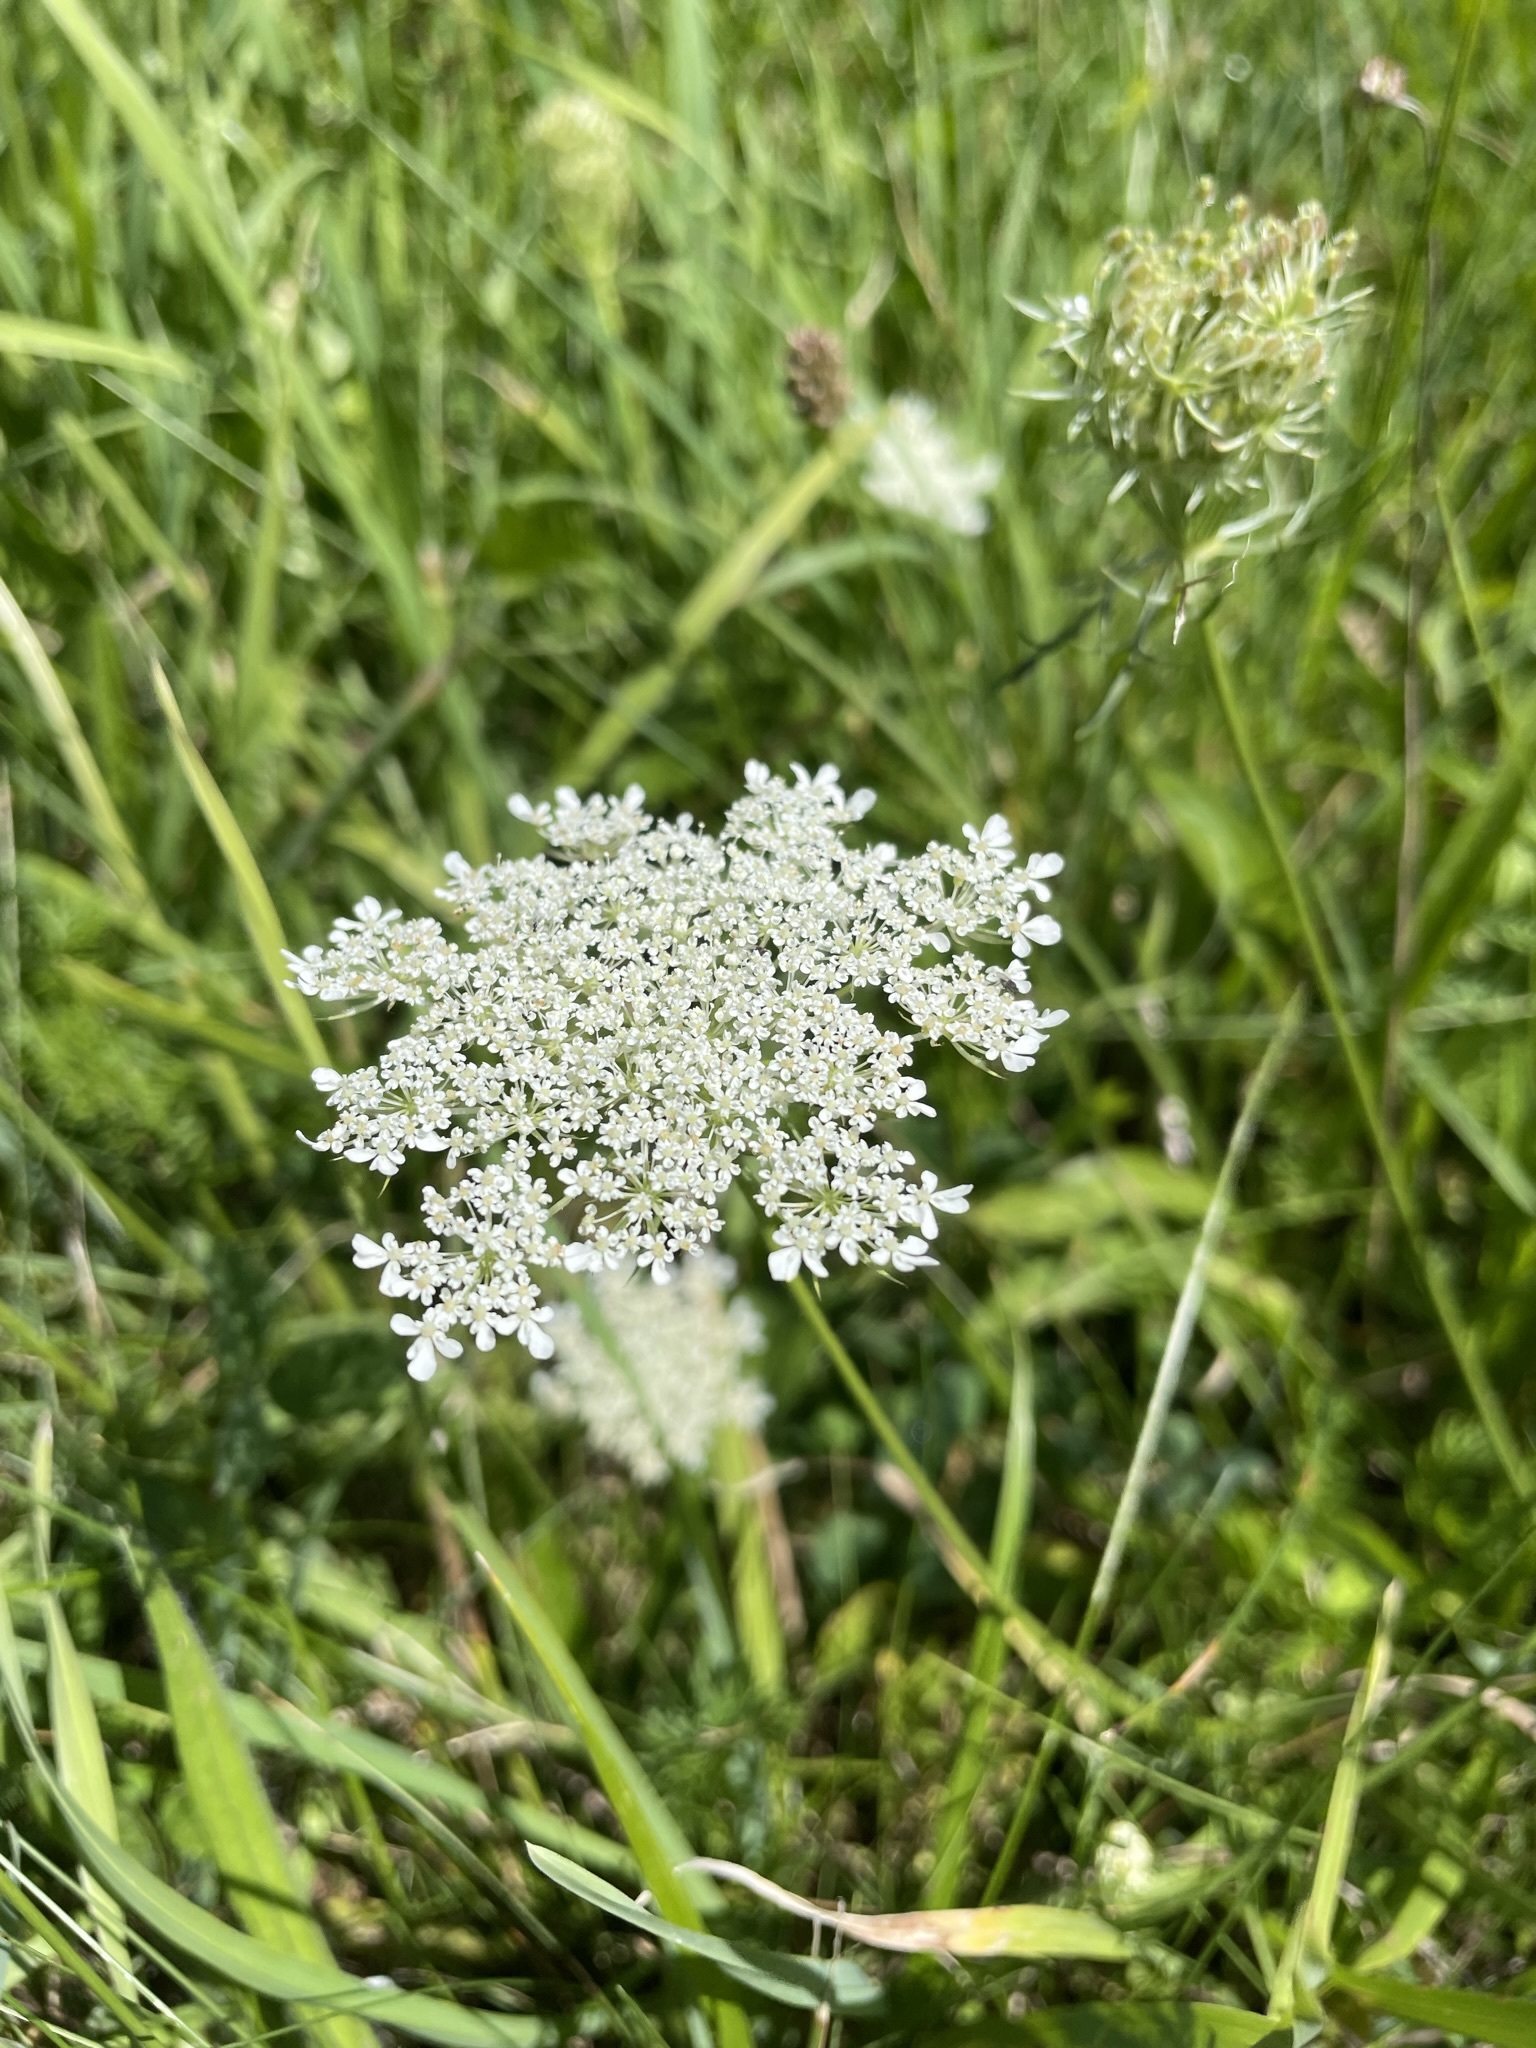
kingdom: Plantae
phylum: Tracheophyta
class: Magnoliopsida
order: Apiales
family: Apiaceae
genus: Daucus
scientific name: Daucus carota
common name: Wild carrot
